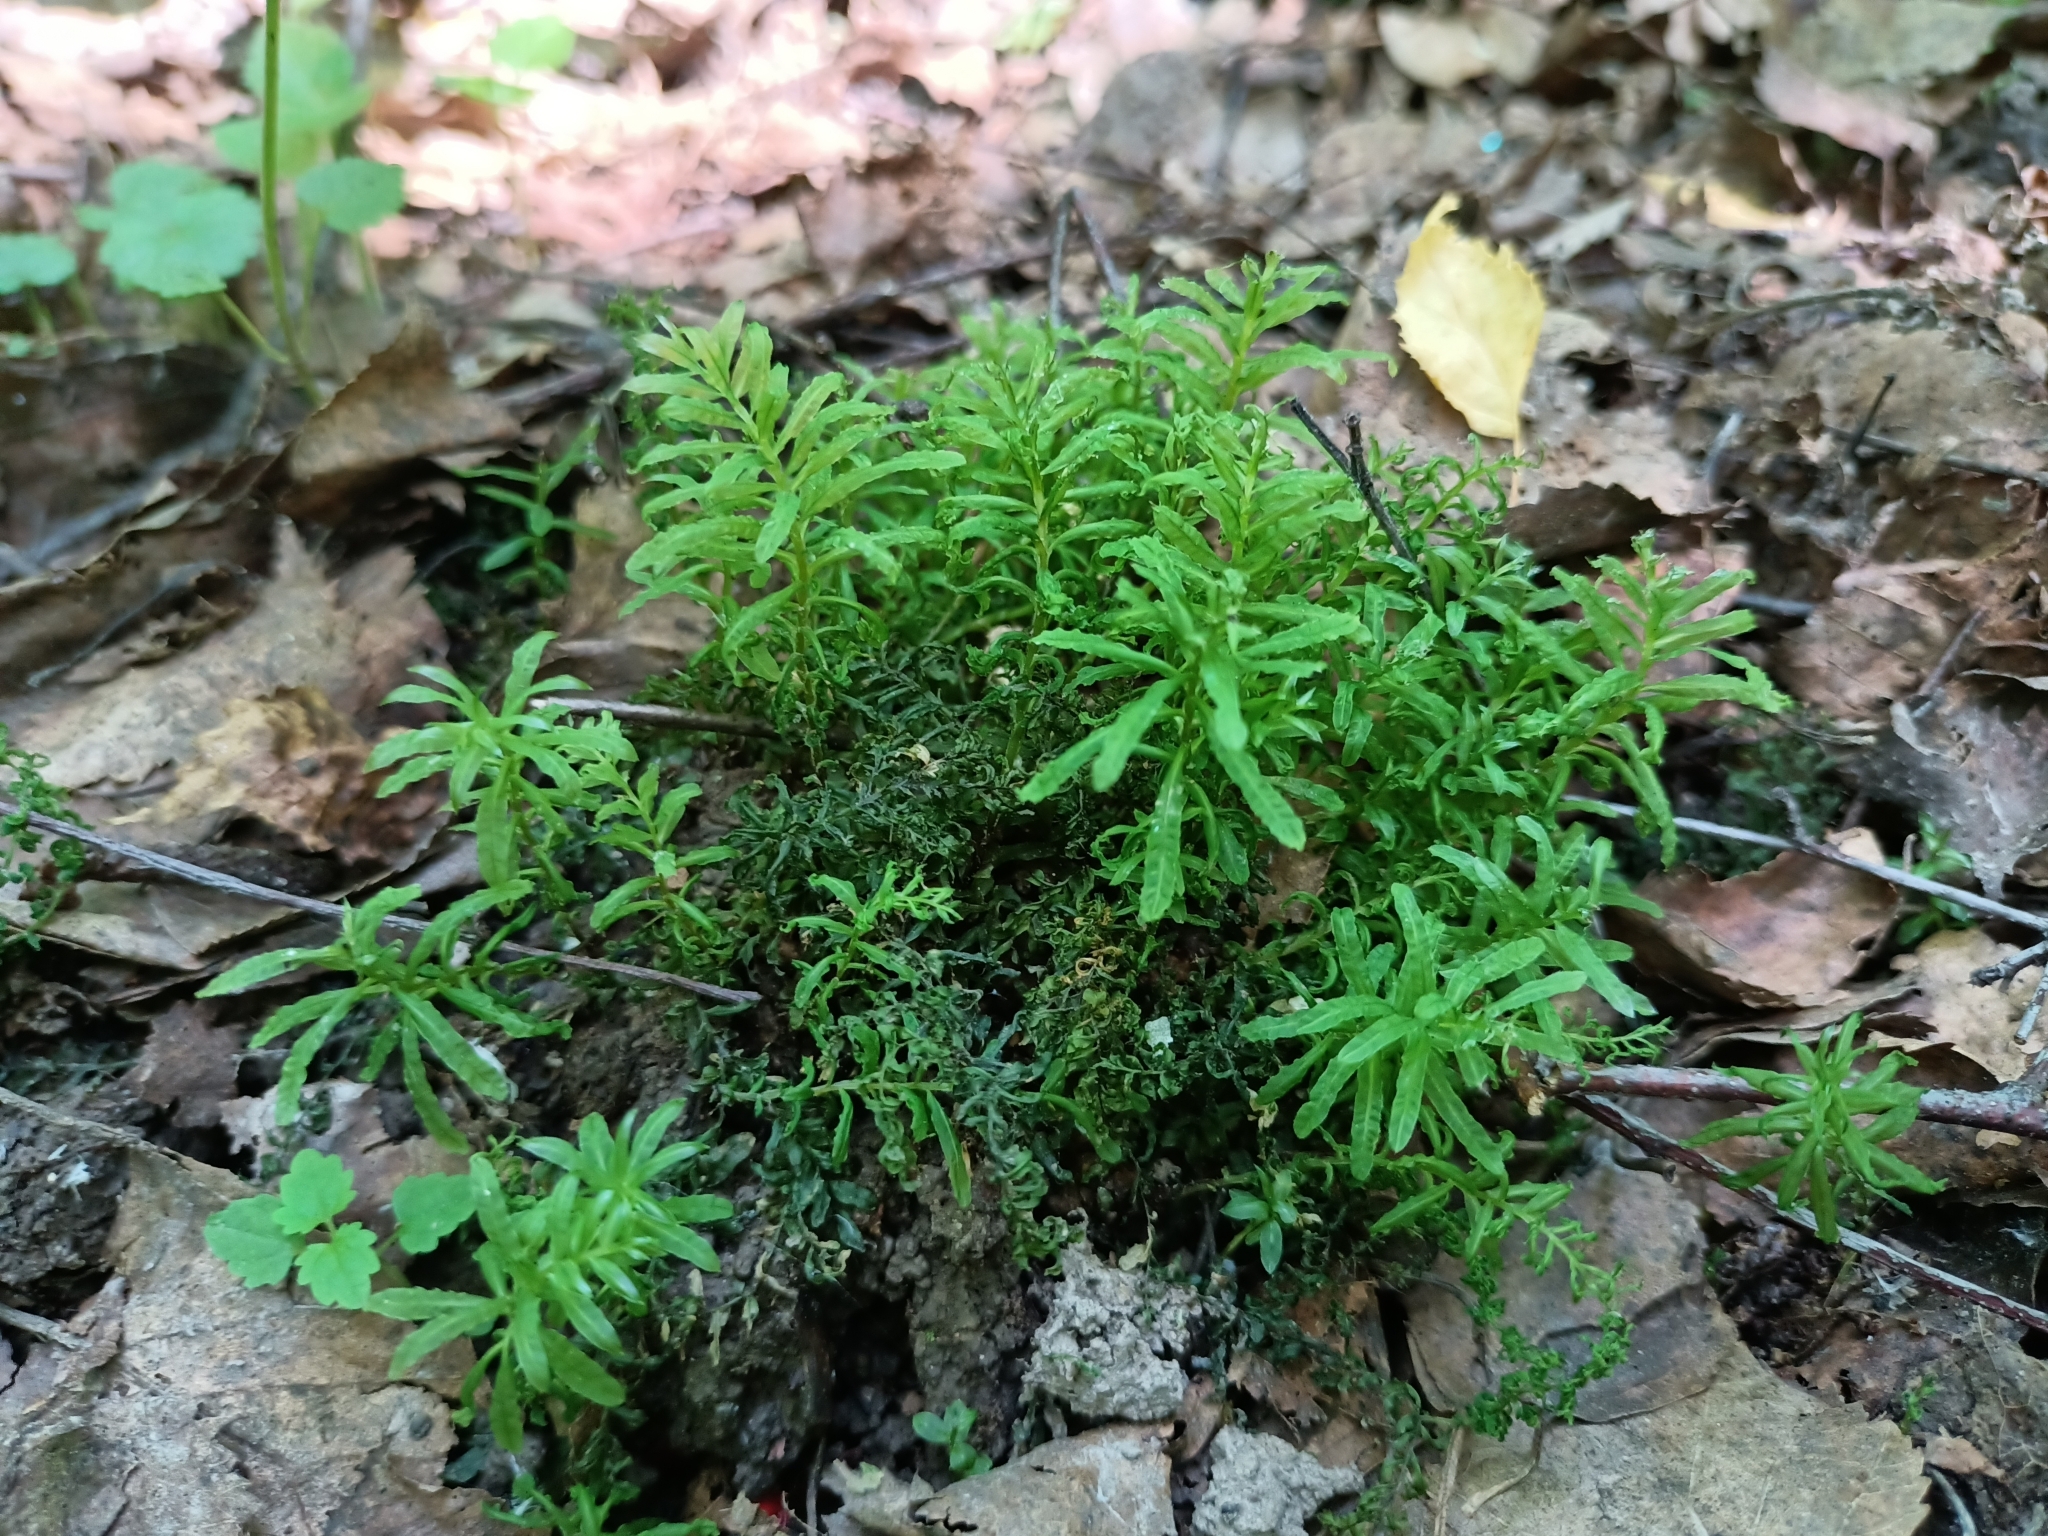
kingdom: Plantae
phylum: Bryophyta
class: Bryopsida
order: Bryales
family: Mniaceae
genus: Plagiomnium
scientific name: Plagiomnium undulatum
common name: Hart's-tongue thyme-moss
